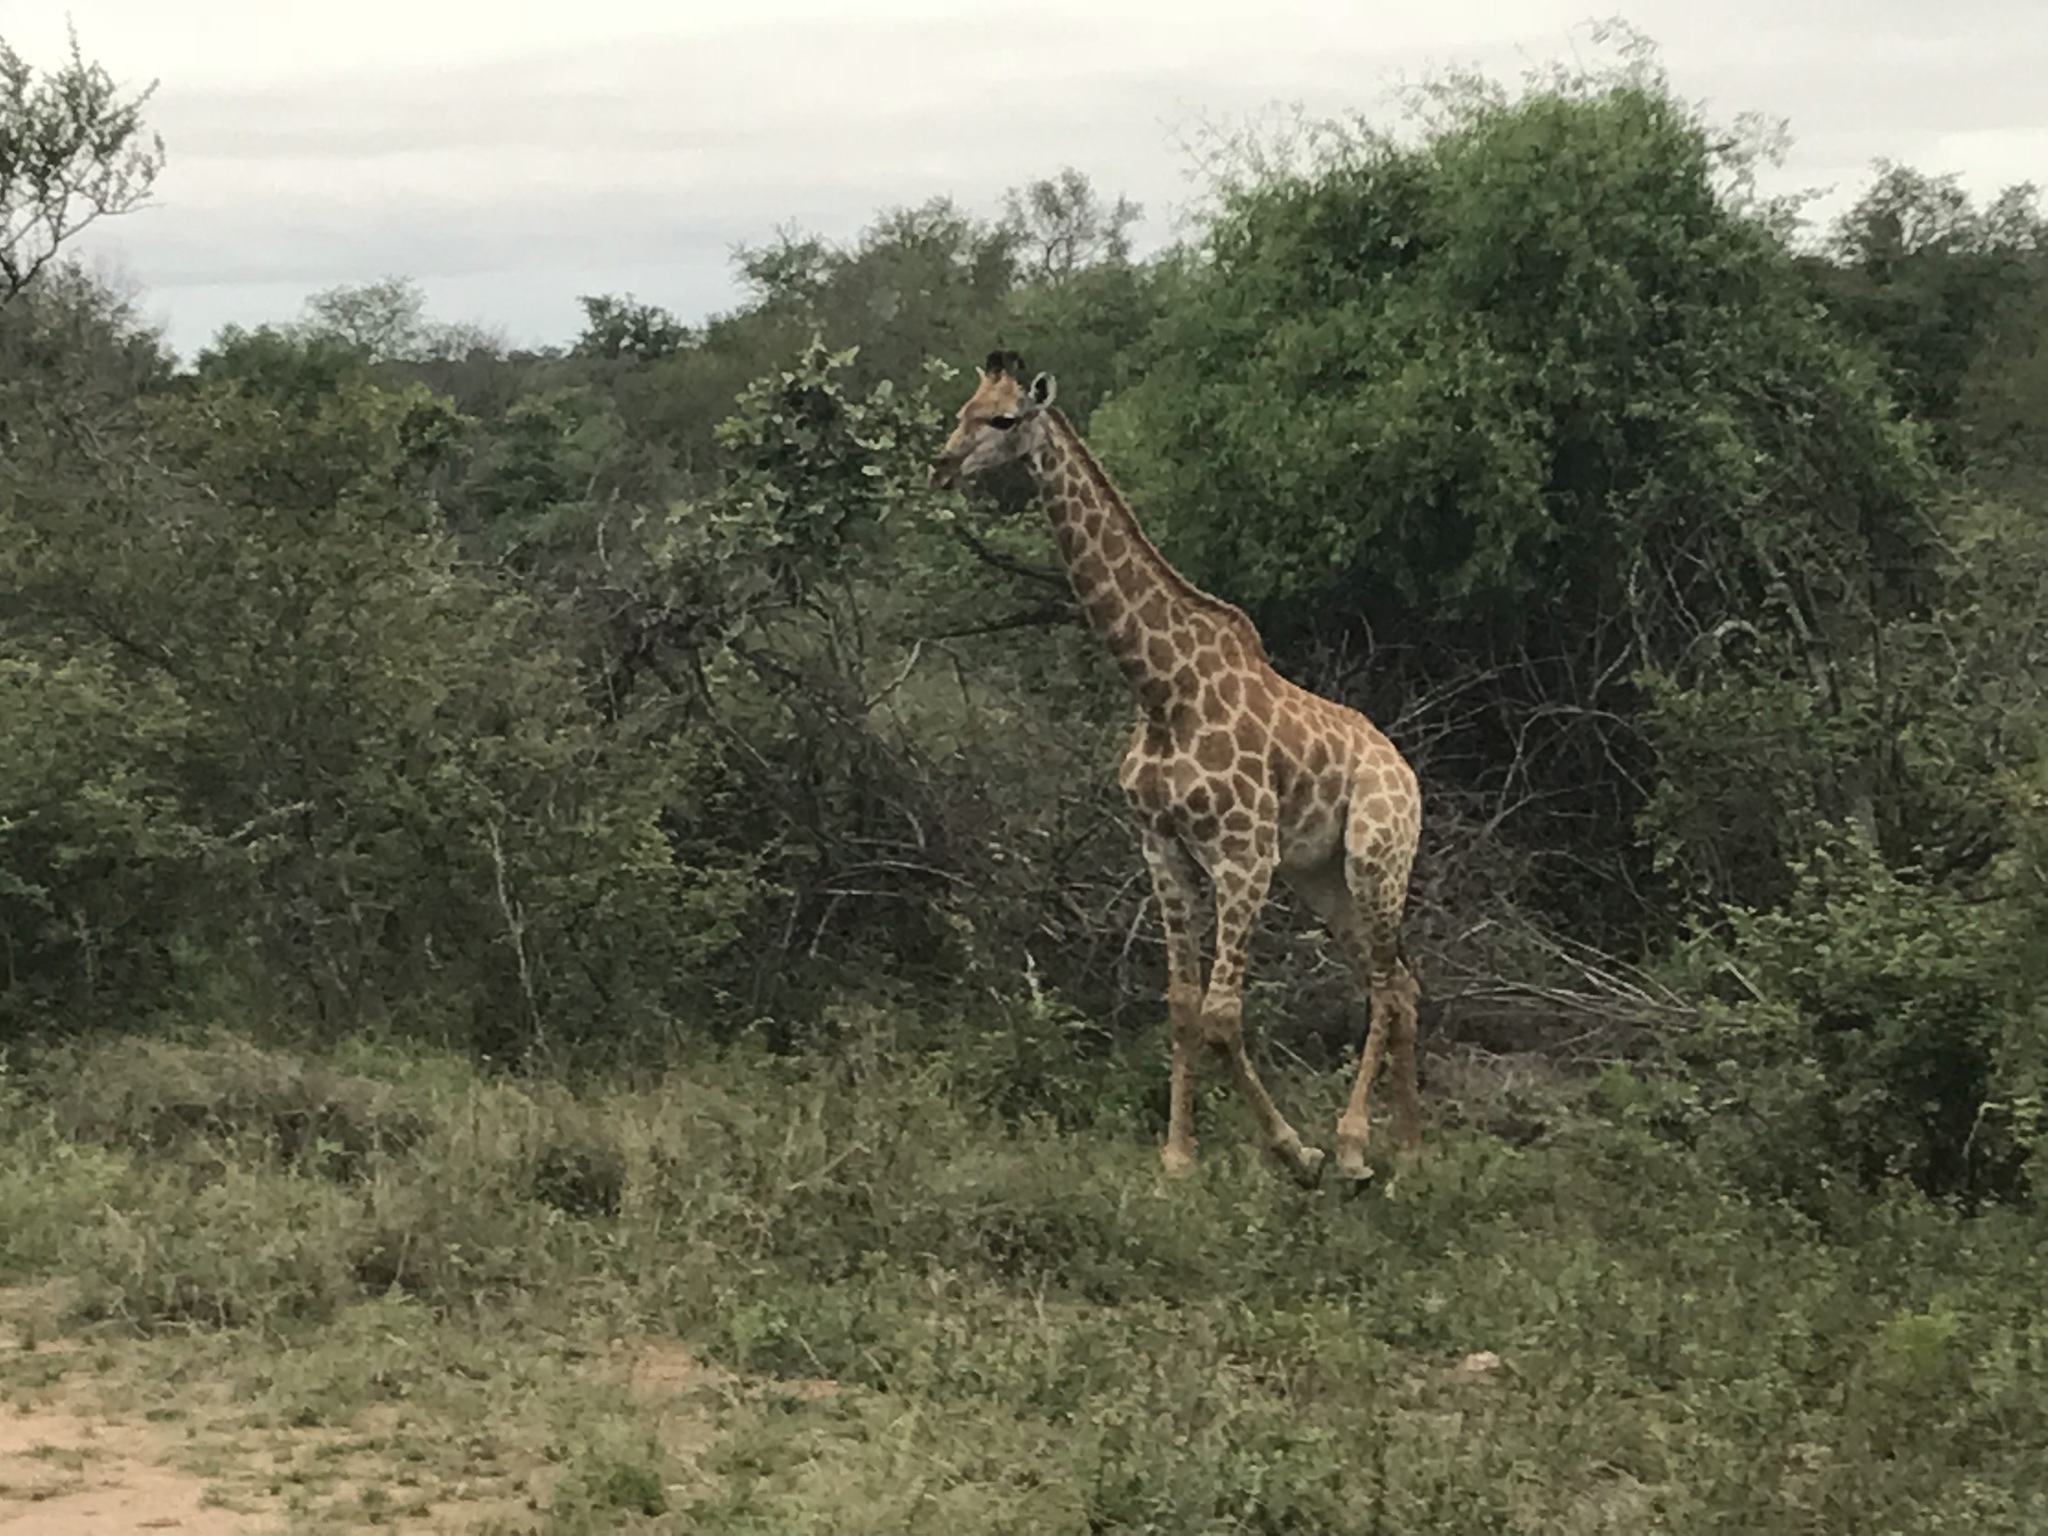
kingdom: Animalia
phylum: Chordata
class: Mammalia
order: Artiodactyla
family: Giraffidae
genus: Giraffa
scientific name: Giraffa giraffa
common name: Southern giraffe
